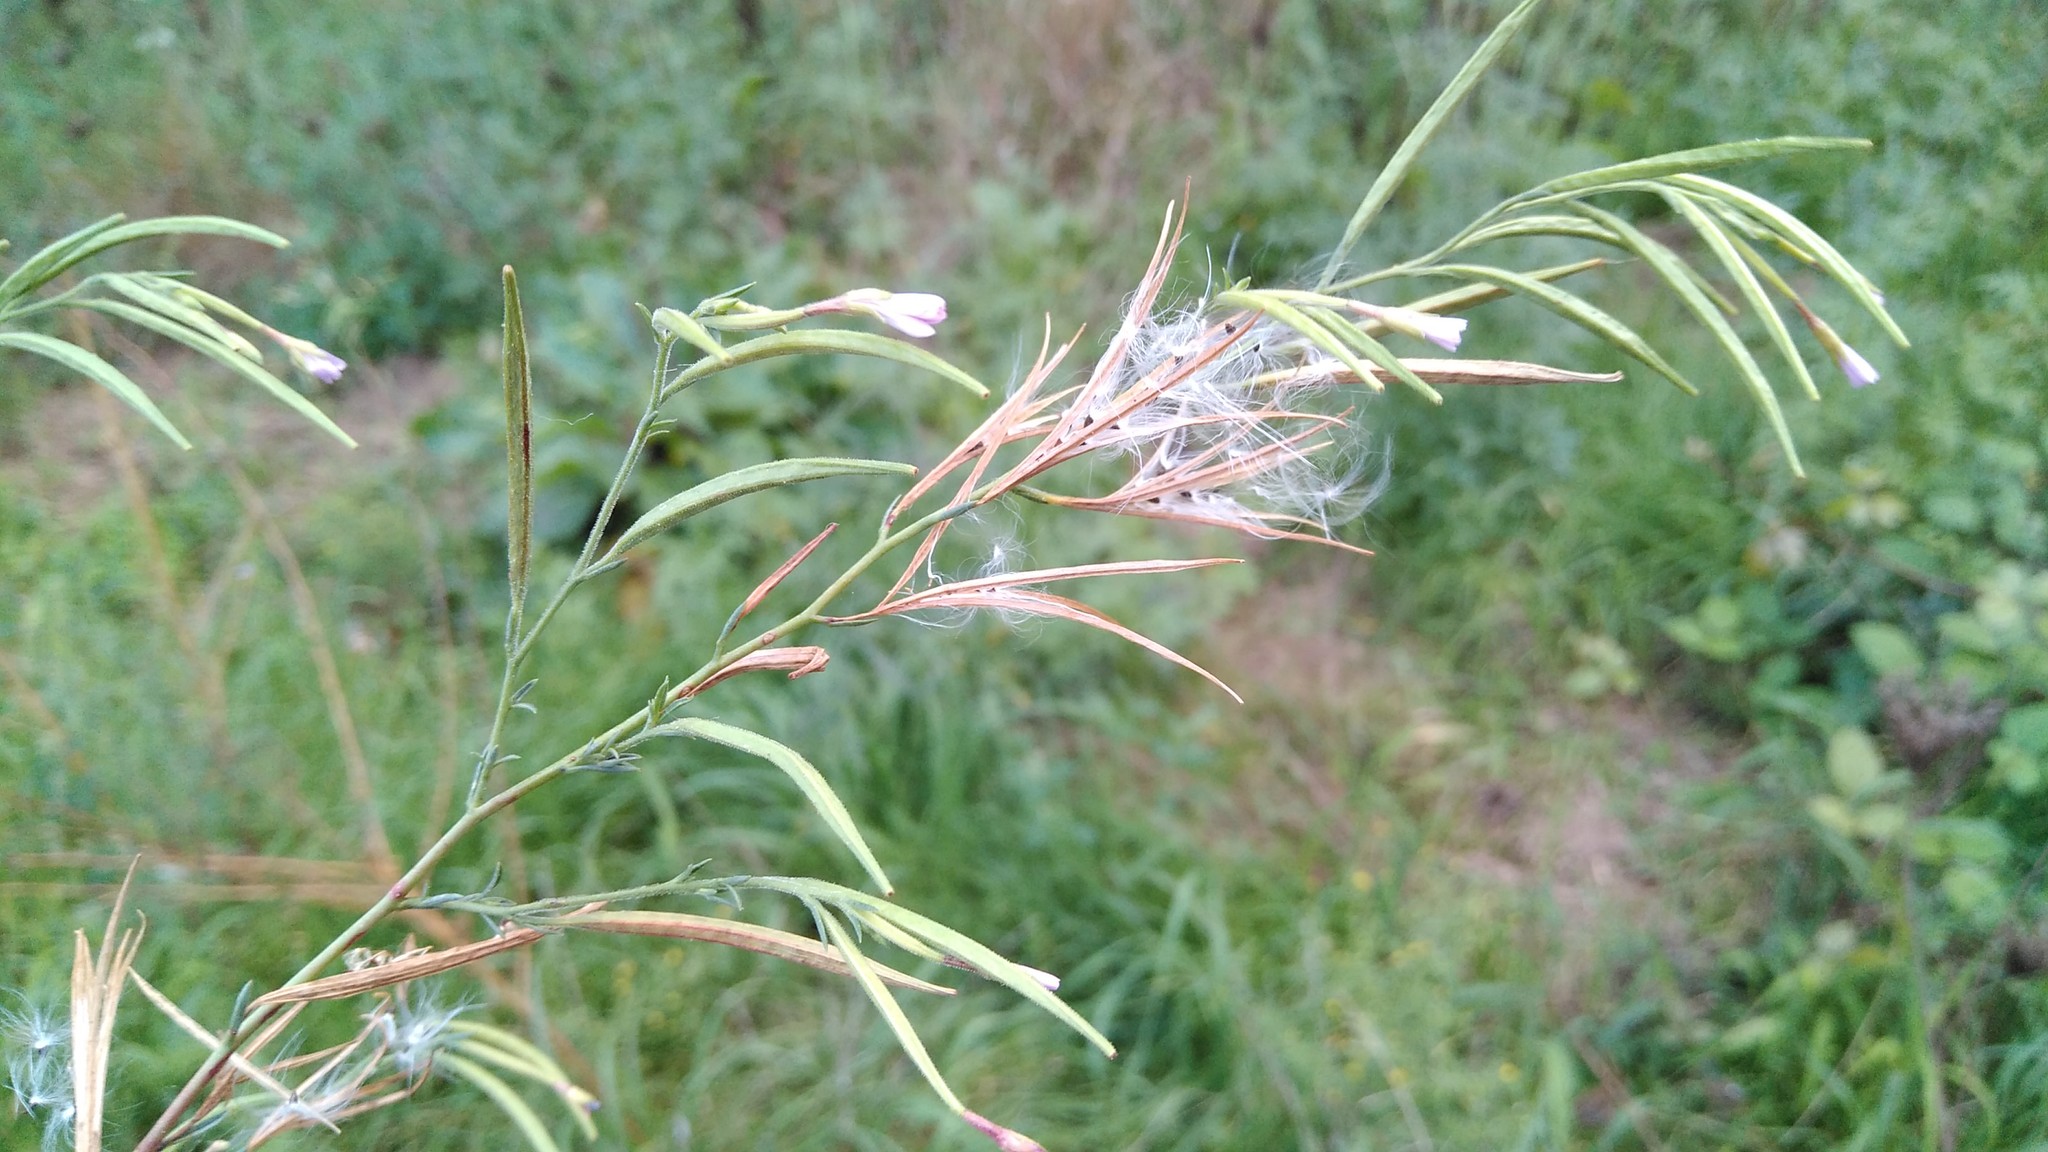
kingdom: Plantae
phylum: Tracheophyta
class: Magnoliopsida
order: Myrtales
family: Onagraceae
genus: Epilobium
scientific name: Epilobium brachycarpum
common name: Annual willowherb
